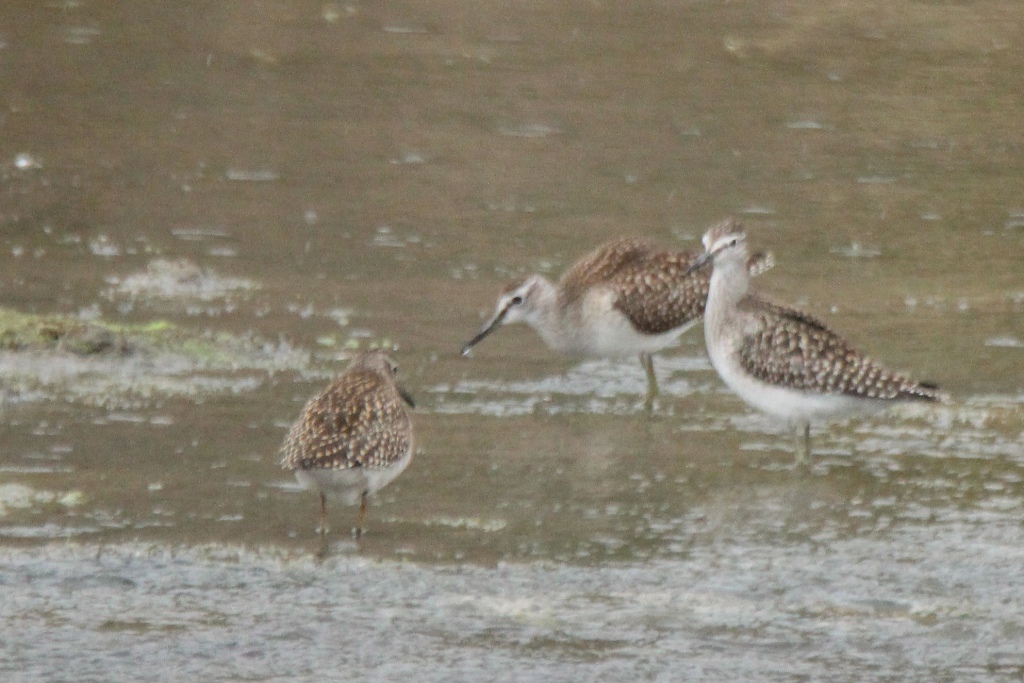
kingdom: Animalia
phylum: Chordata
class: Aves
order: Charadriiformes
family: Scolopacidae
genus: Tringa
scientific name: Tringa glareola
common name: Wood sandpiper
